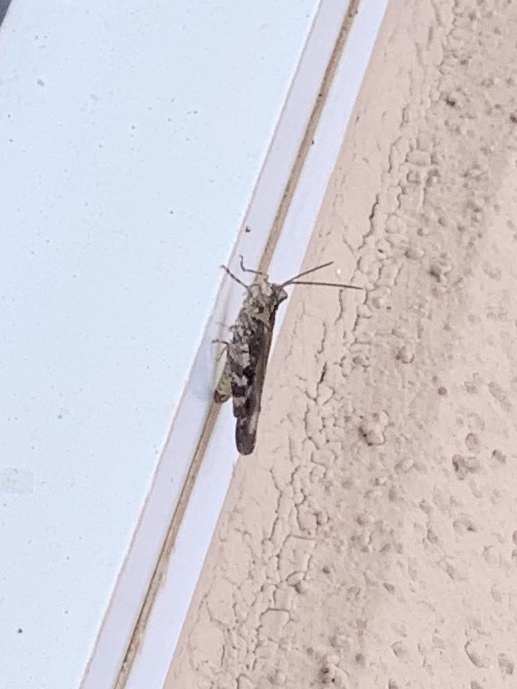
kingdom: Animalia
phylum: Arthropoda
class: Insecta
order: Orthoptera
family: Acrididae
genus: Psinidia
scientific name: Psinidia fenestralis
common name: Long-horned locust
